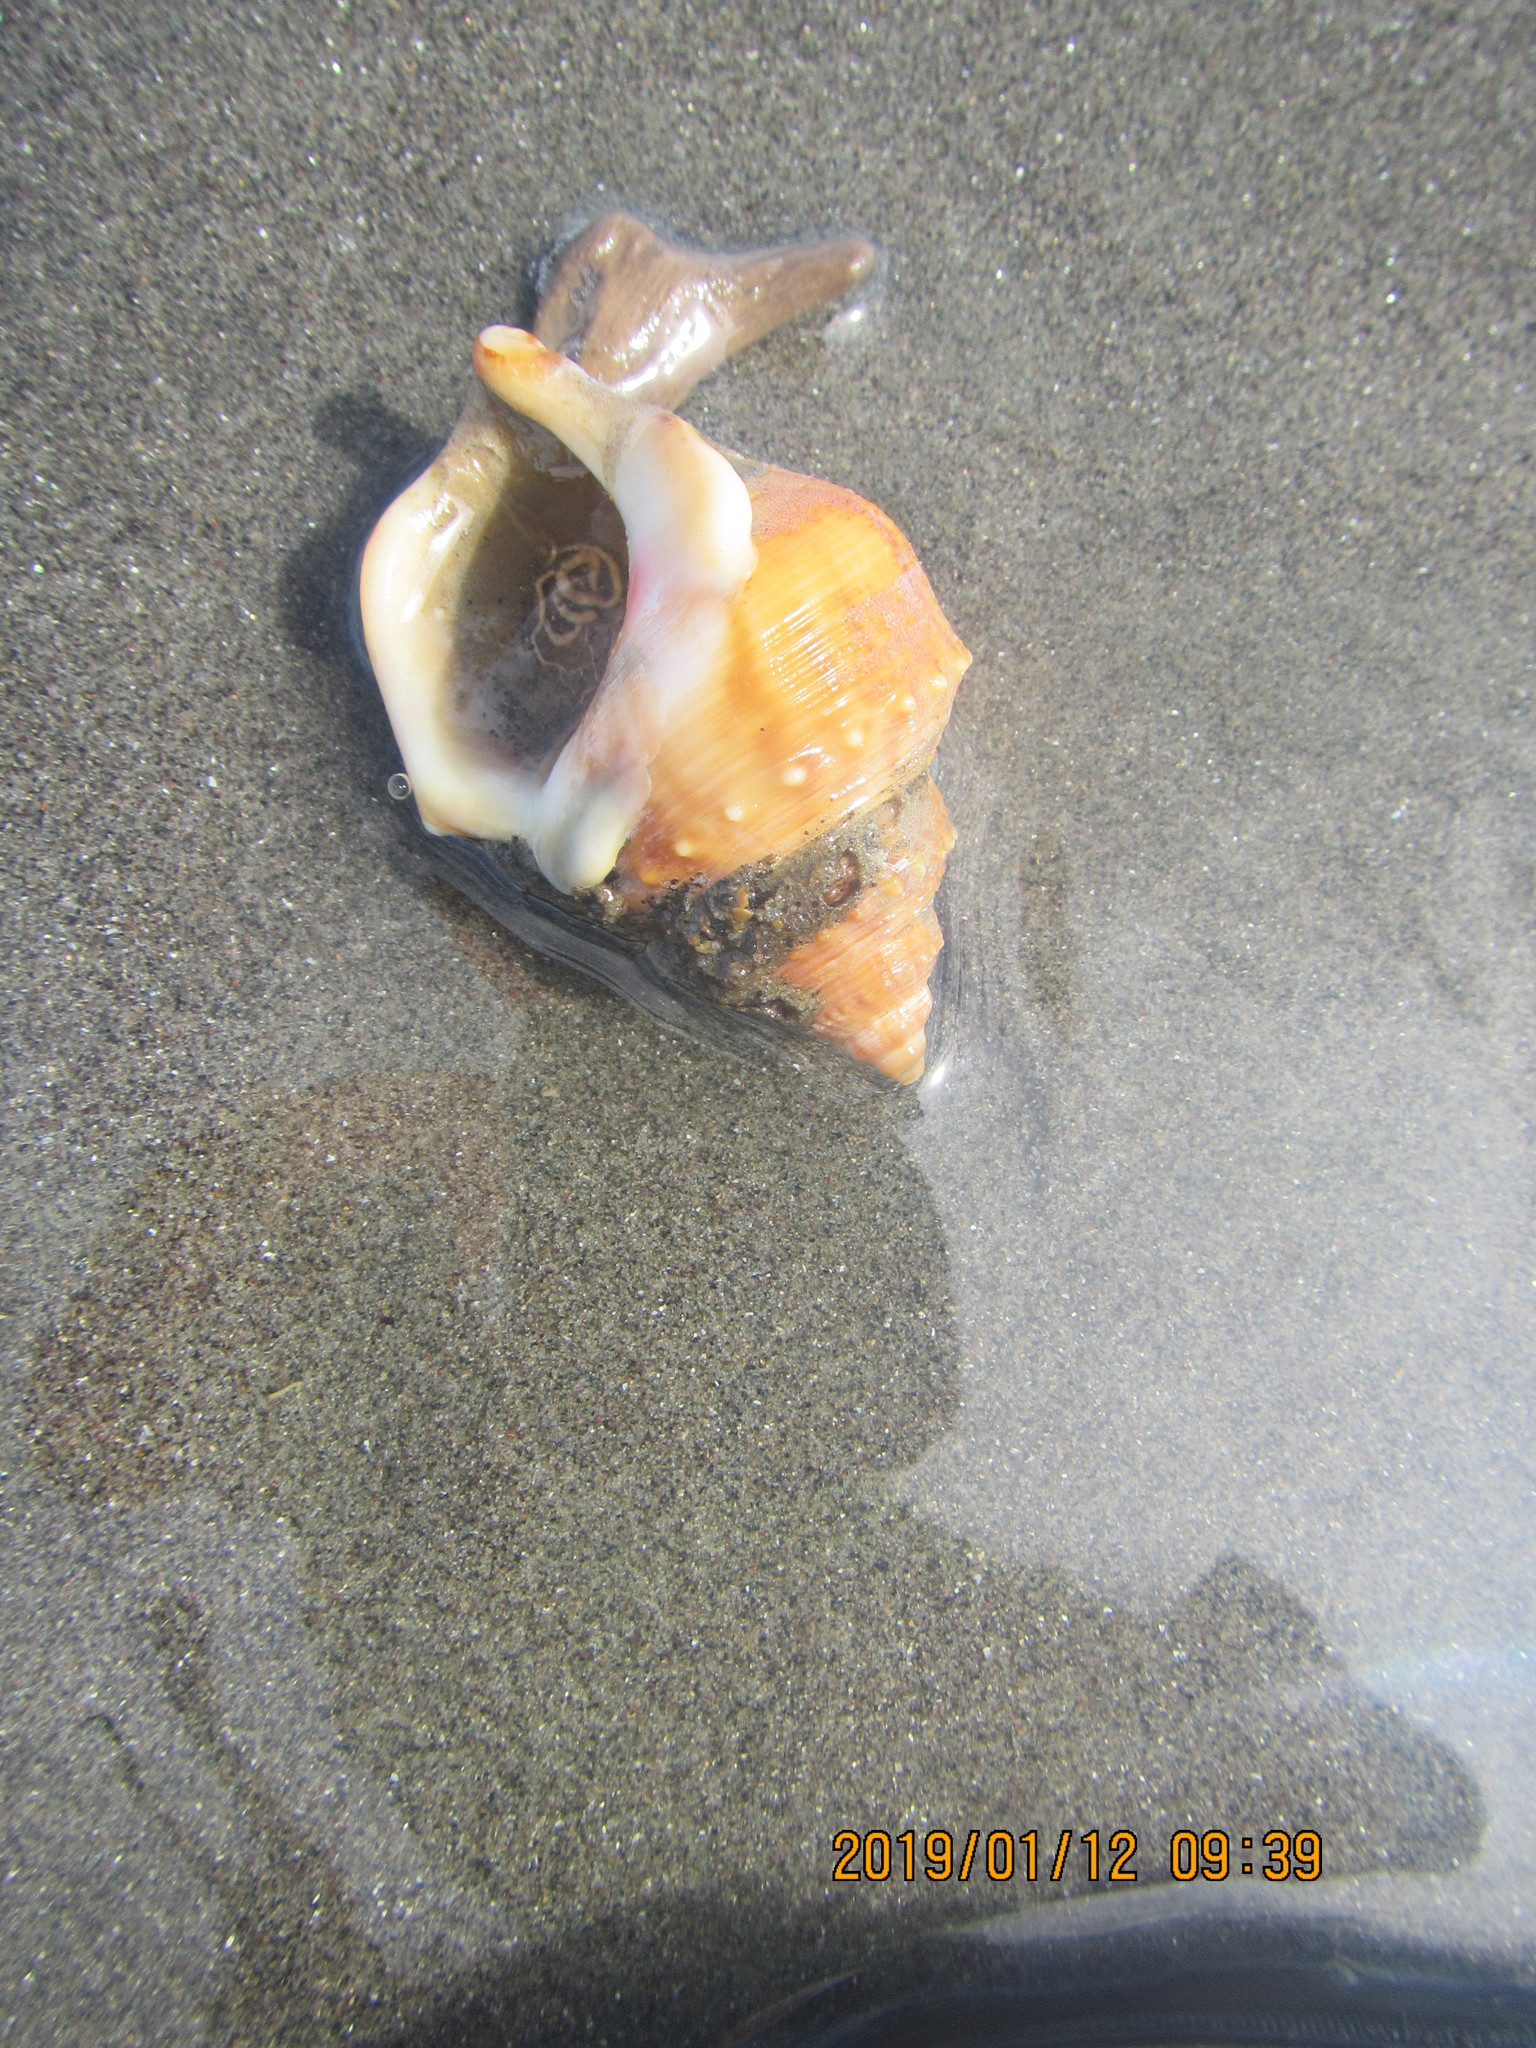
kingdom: Animalia
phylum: Mollusca
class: Gastropoda
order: Littorinimorpha
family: Struthiolariidae
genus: Struthiolaria
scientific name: Struthiolaria papulosa
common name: Large ostrich foot
